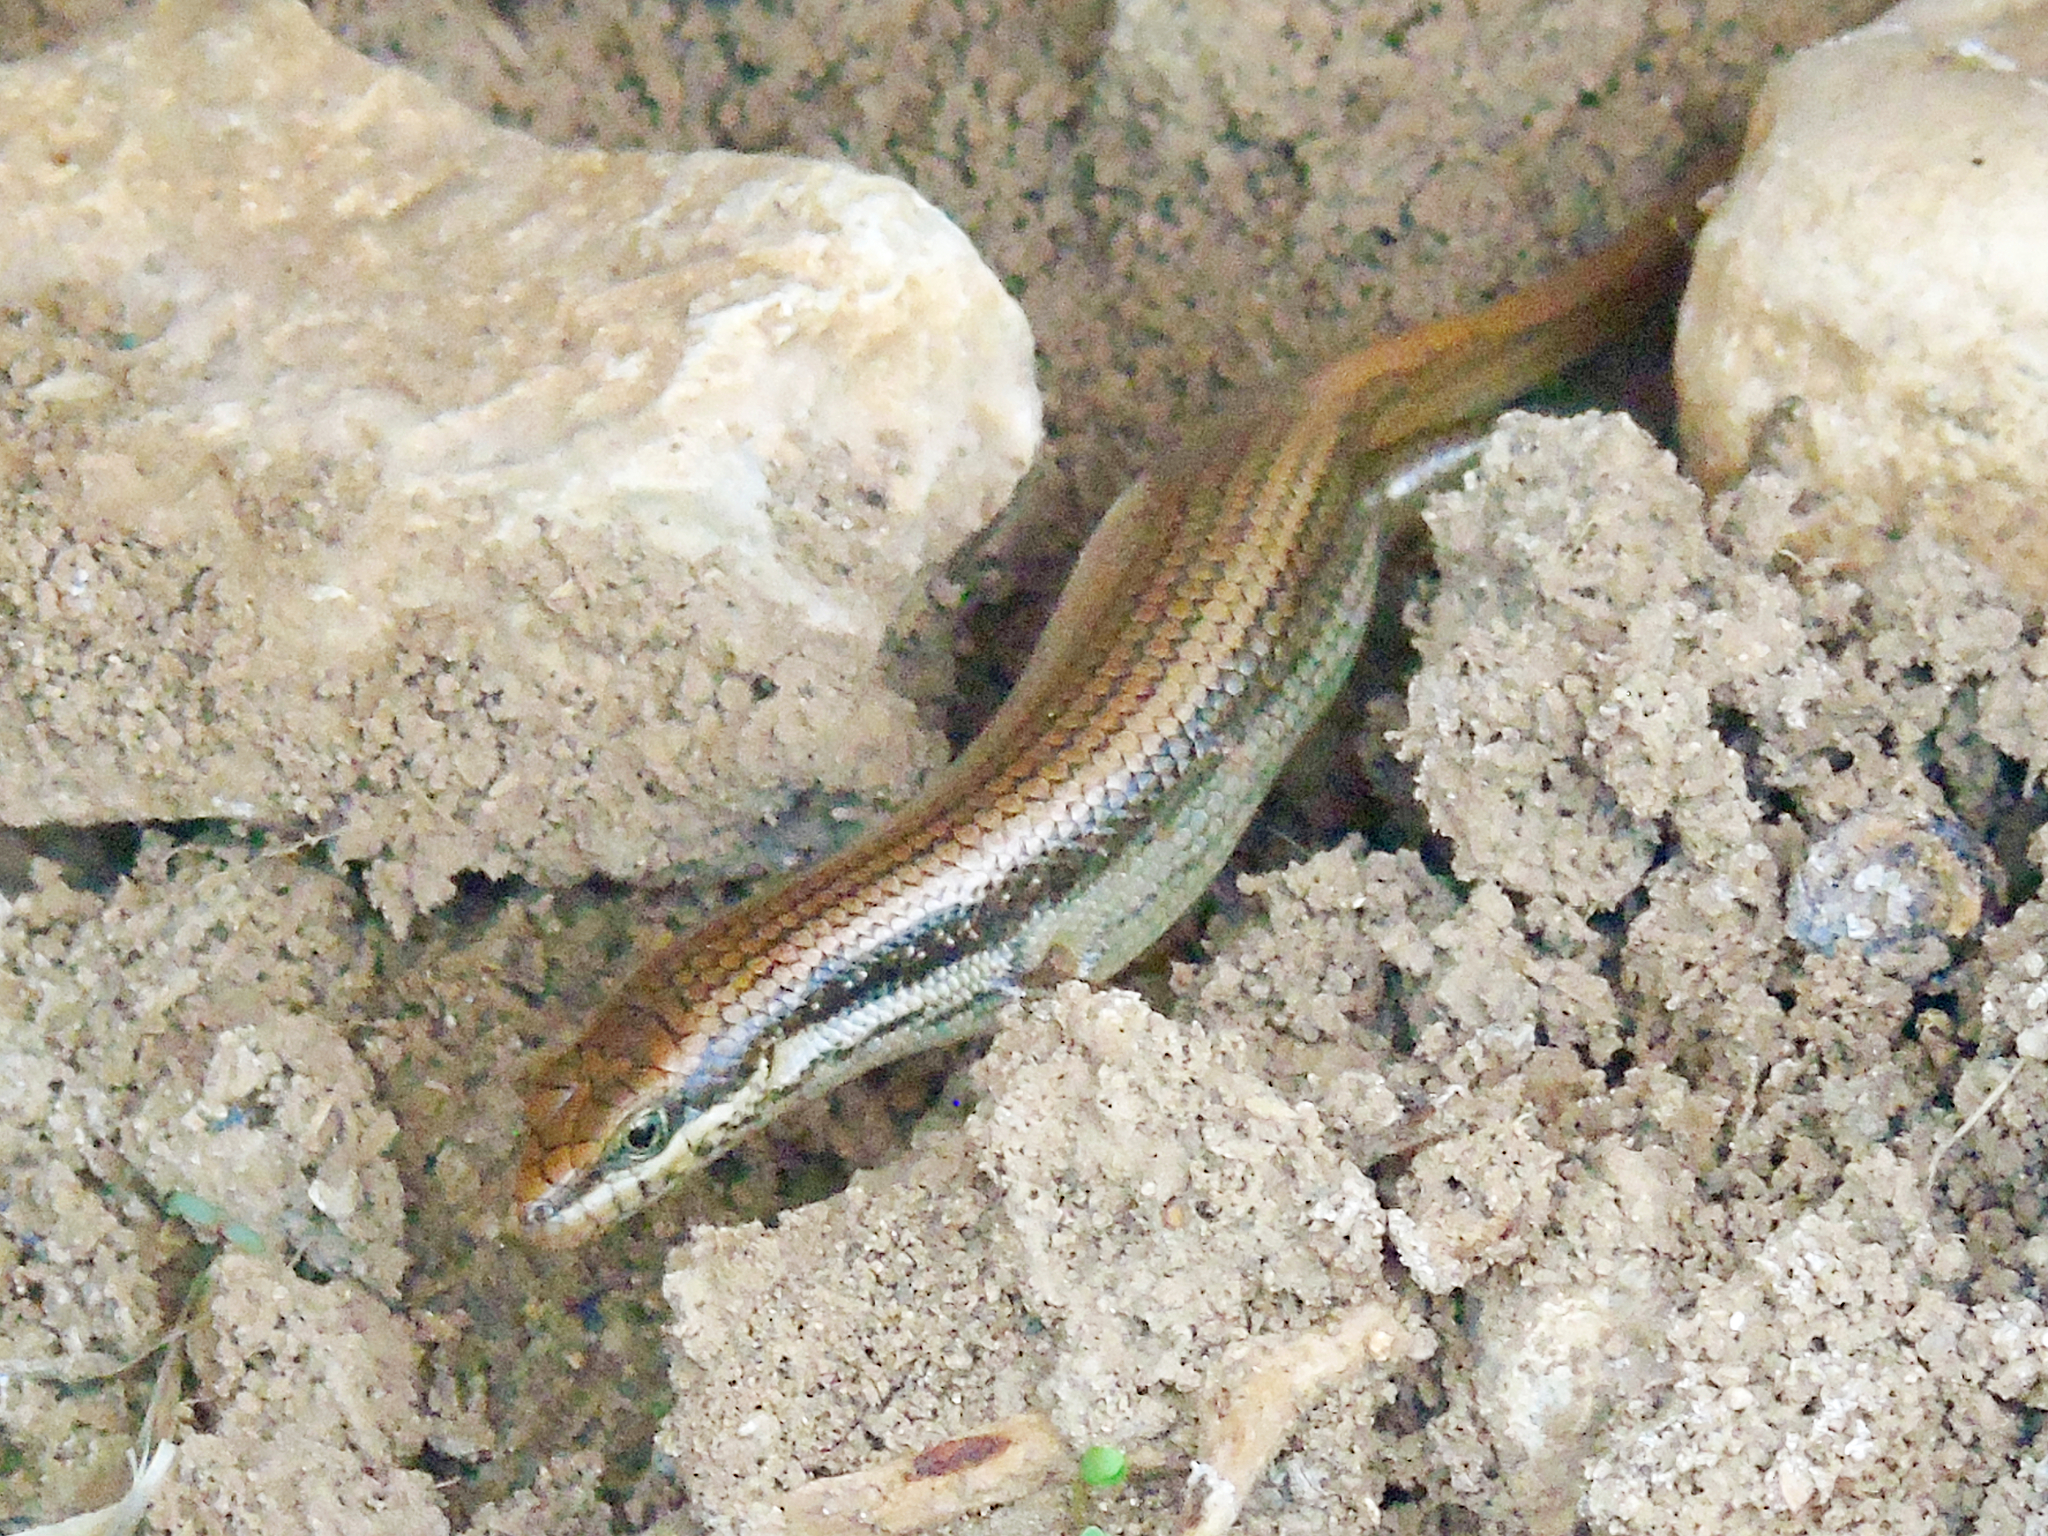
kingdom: Animalia
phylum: Chordata
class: Squamata
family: Scincidae
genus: Trachylepis
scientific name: Trachylepis tessellata
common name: Tessellated mabuya
